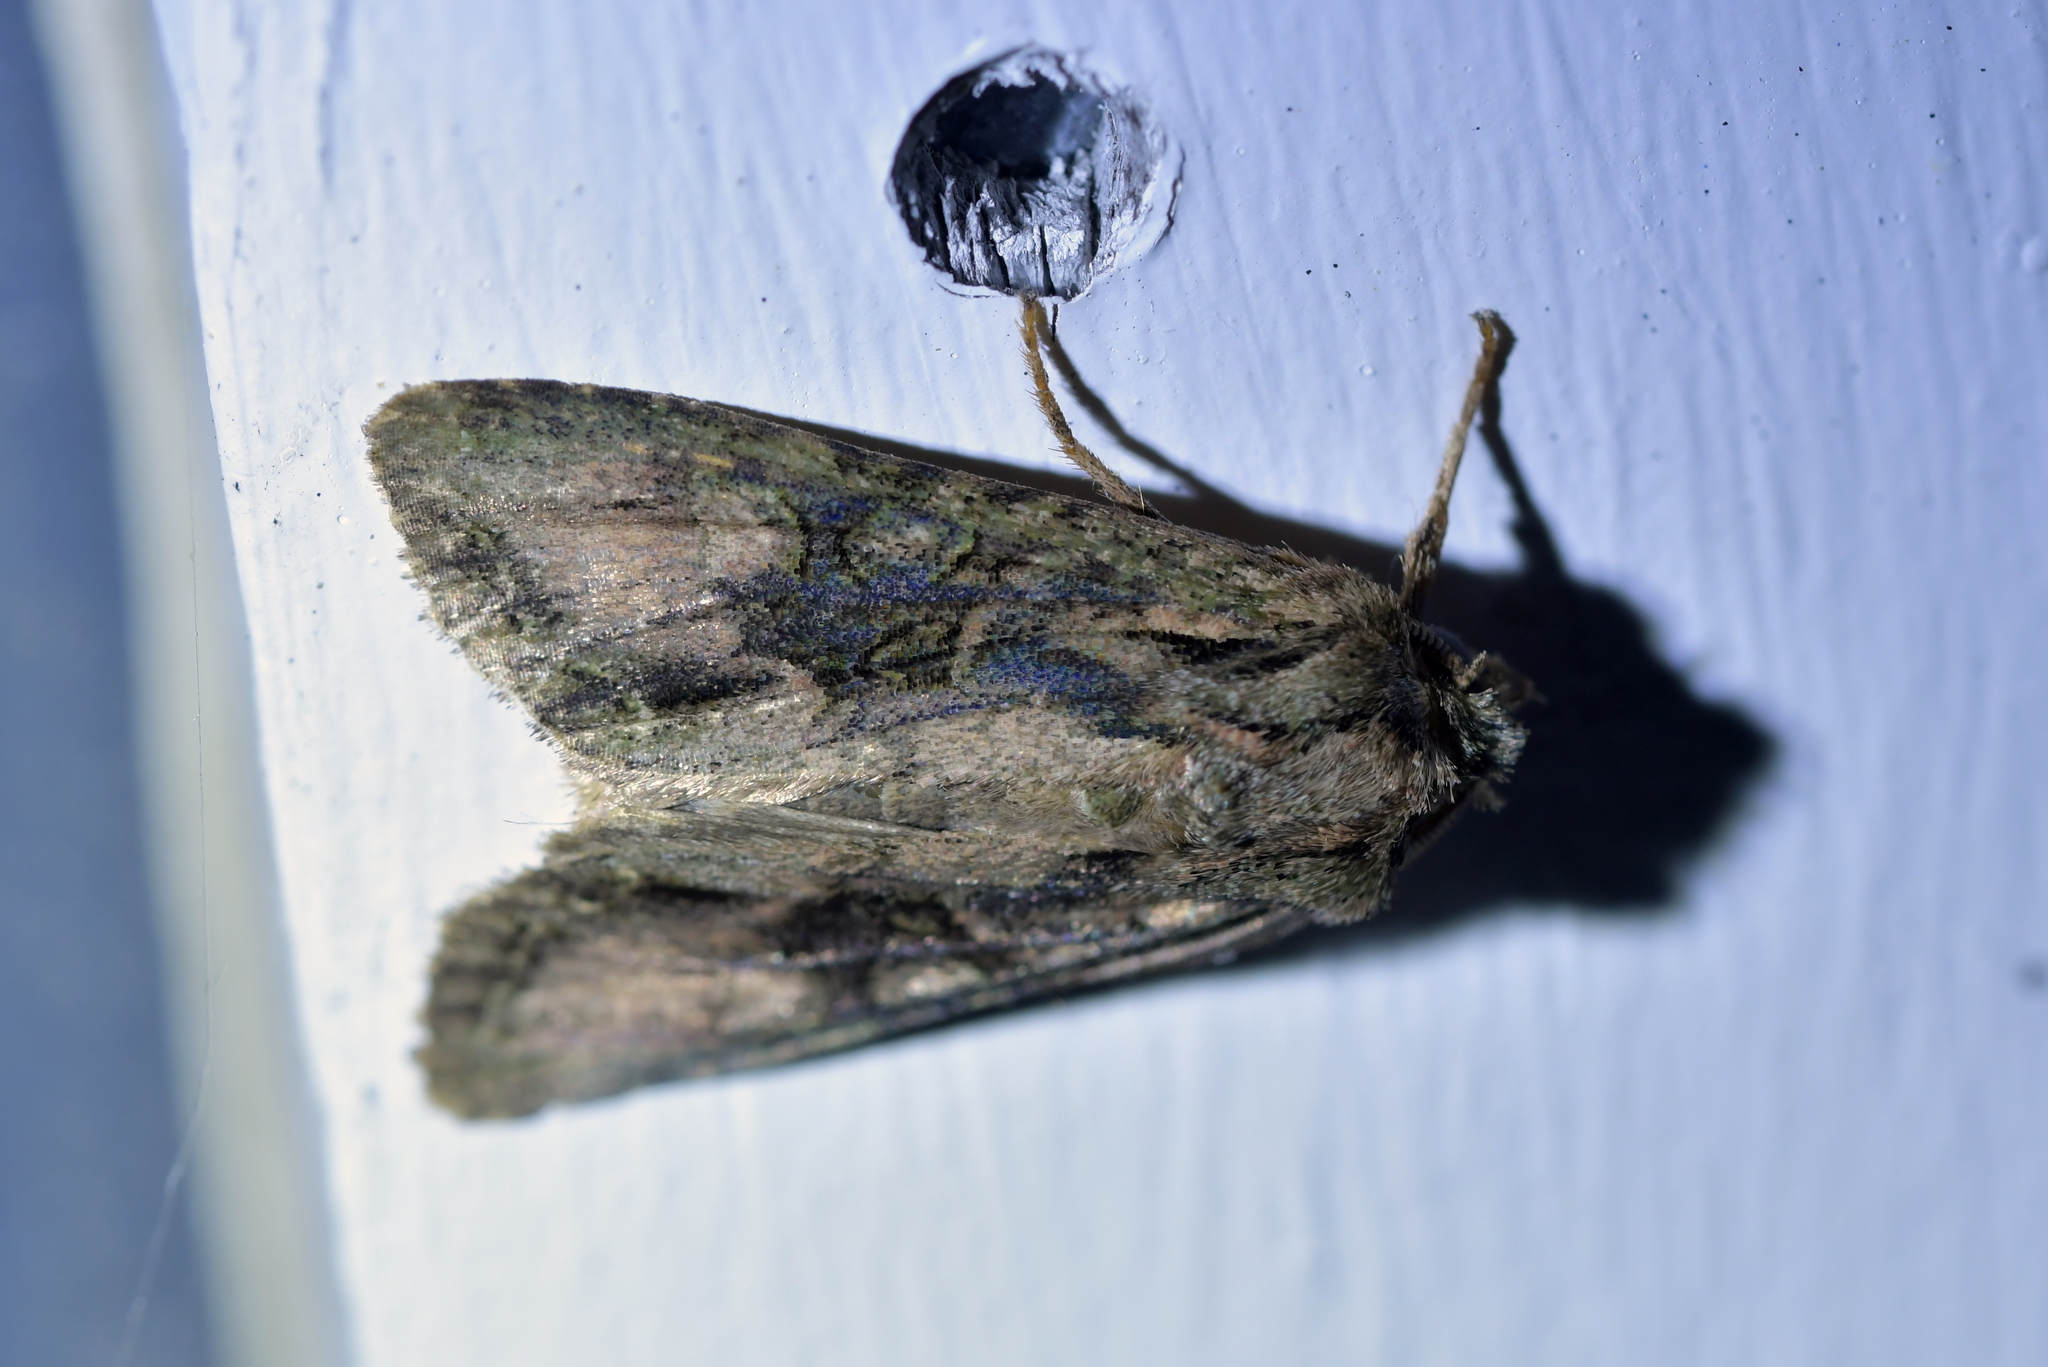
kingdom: Animalia
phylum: Arthropoda
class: Insecta
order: Lepidoptera
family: Noctuidae
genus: Ichneutica
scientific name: Ichneutica mutans
